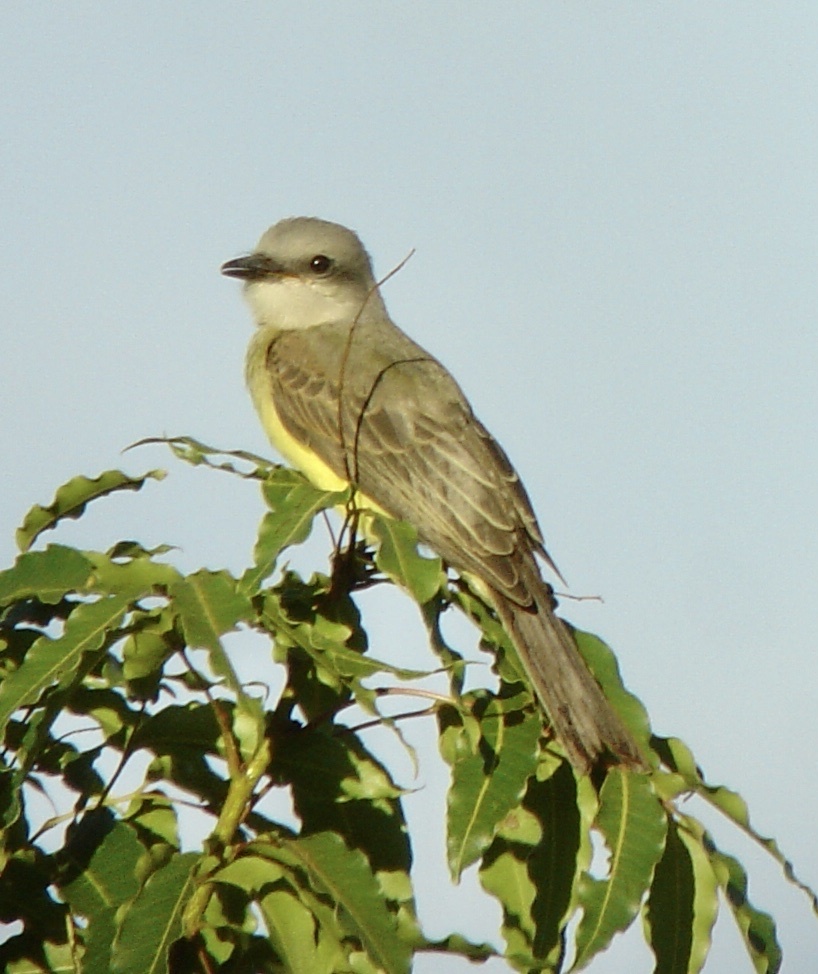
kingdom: Animalia
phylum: Chordata
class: Aves
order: Passeriformes
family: Tyrannidae
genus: Tyrannus
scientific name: Tyrannus melancholicus
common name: Tropical kingbird
